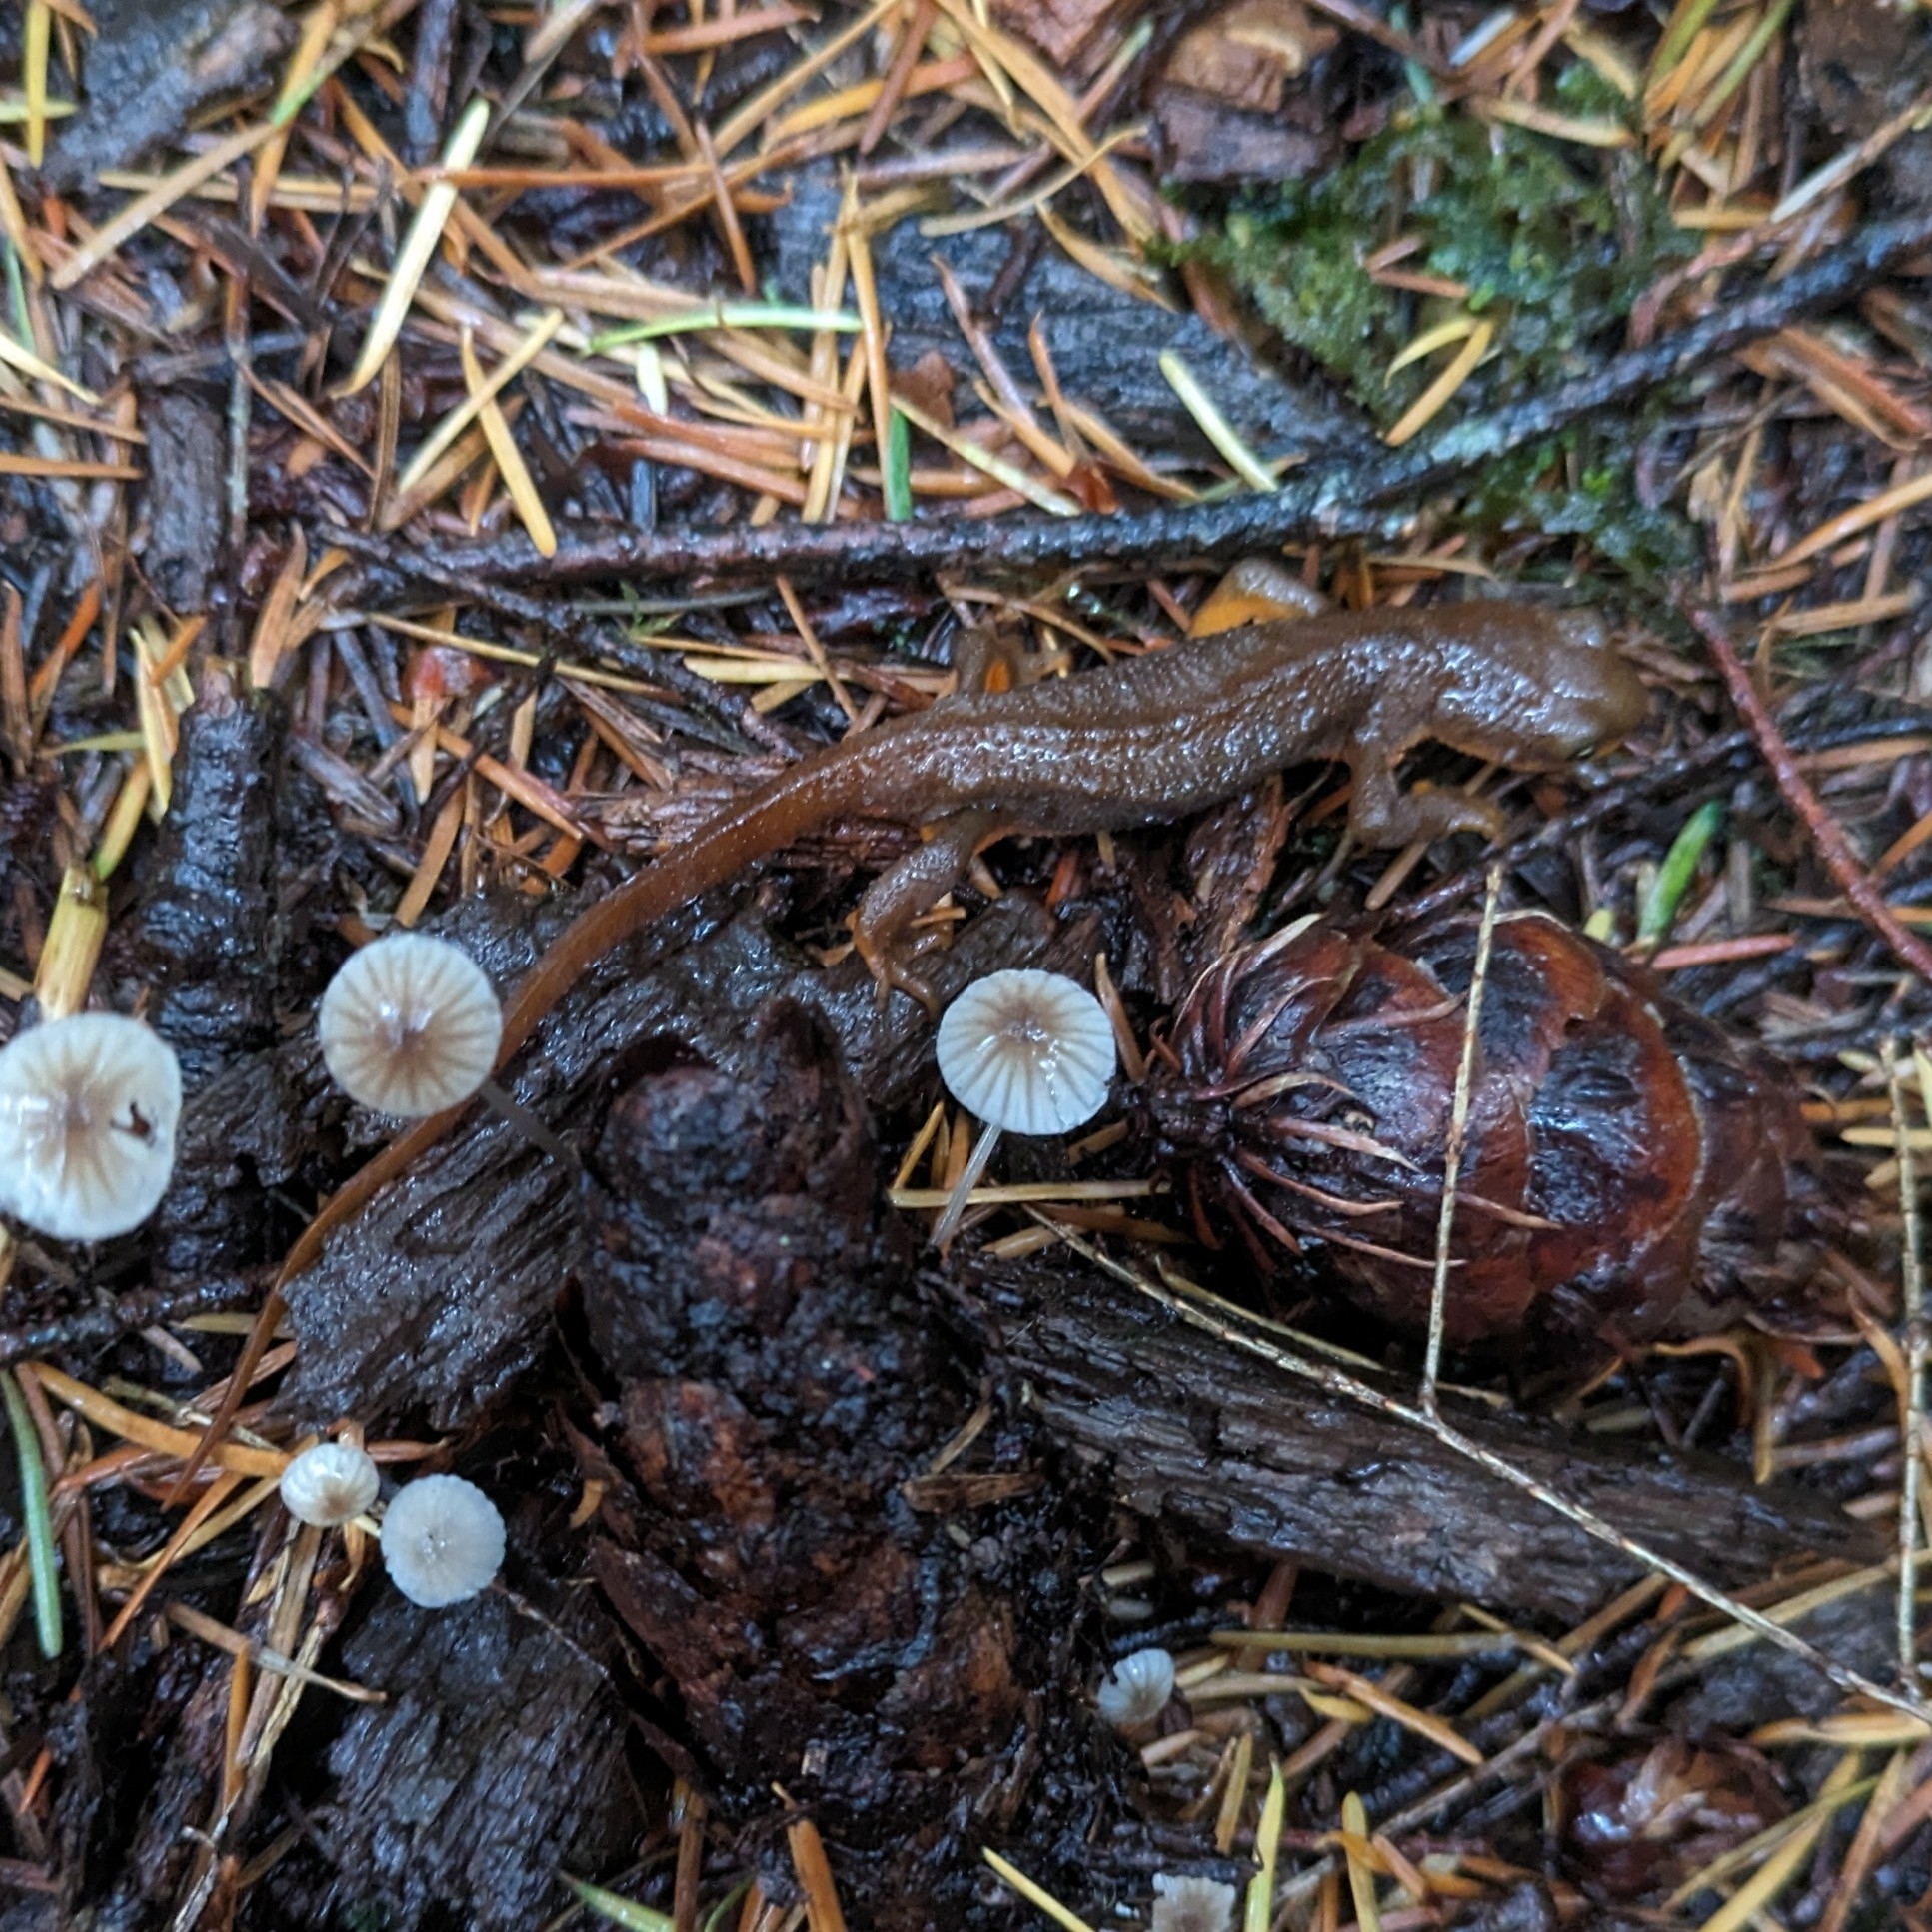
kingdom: Animalia
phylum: Chordata
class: Amphibia
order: Caudata
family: Salamandridae
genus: Taricha
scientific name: Taricha granulosa
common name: Roughskin newt
